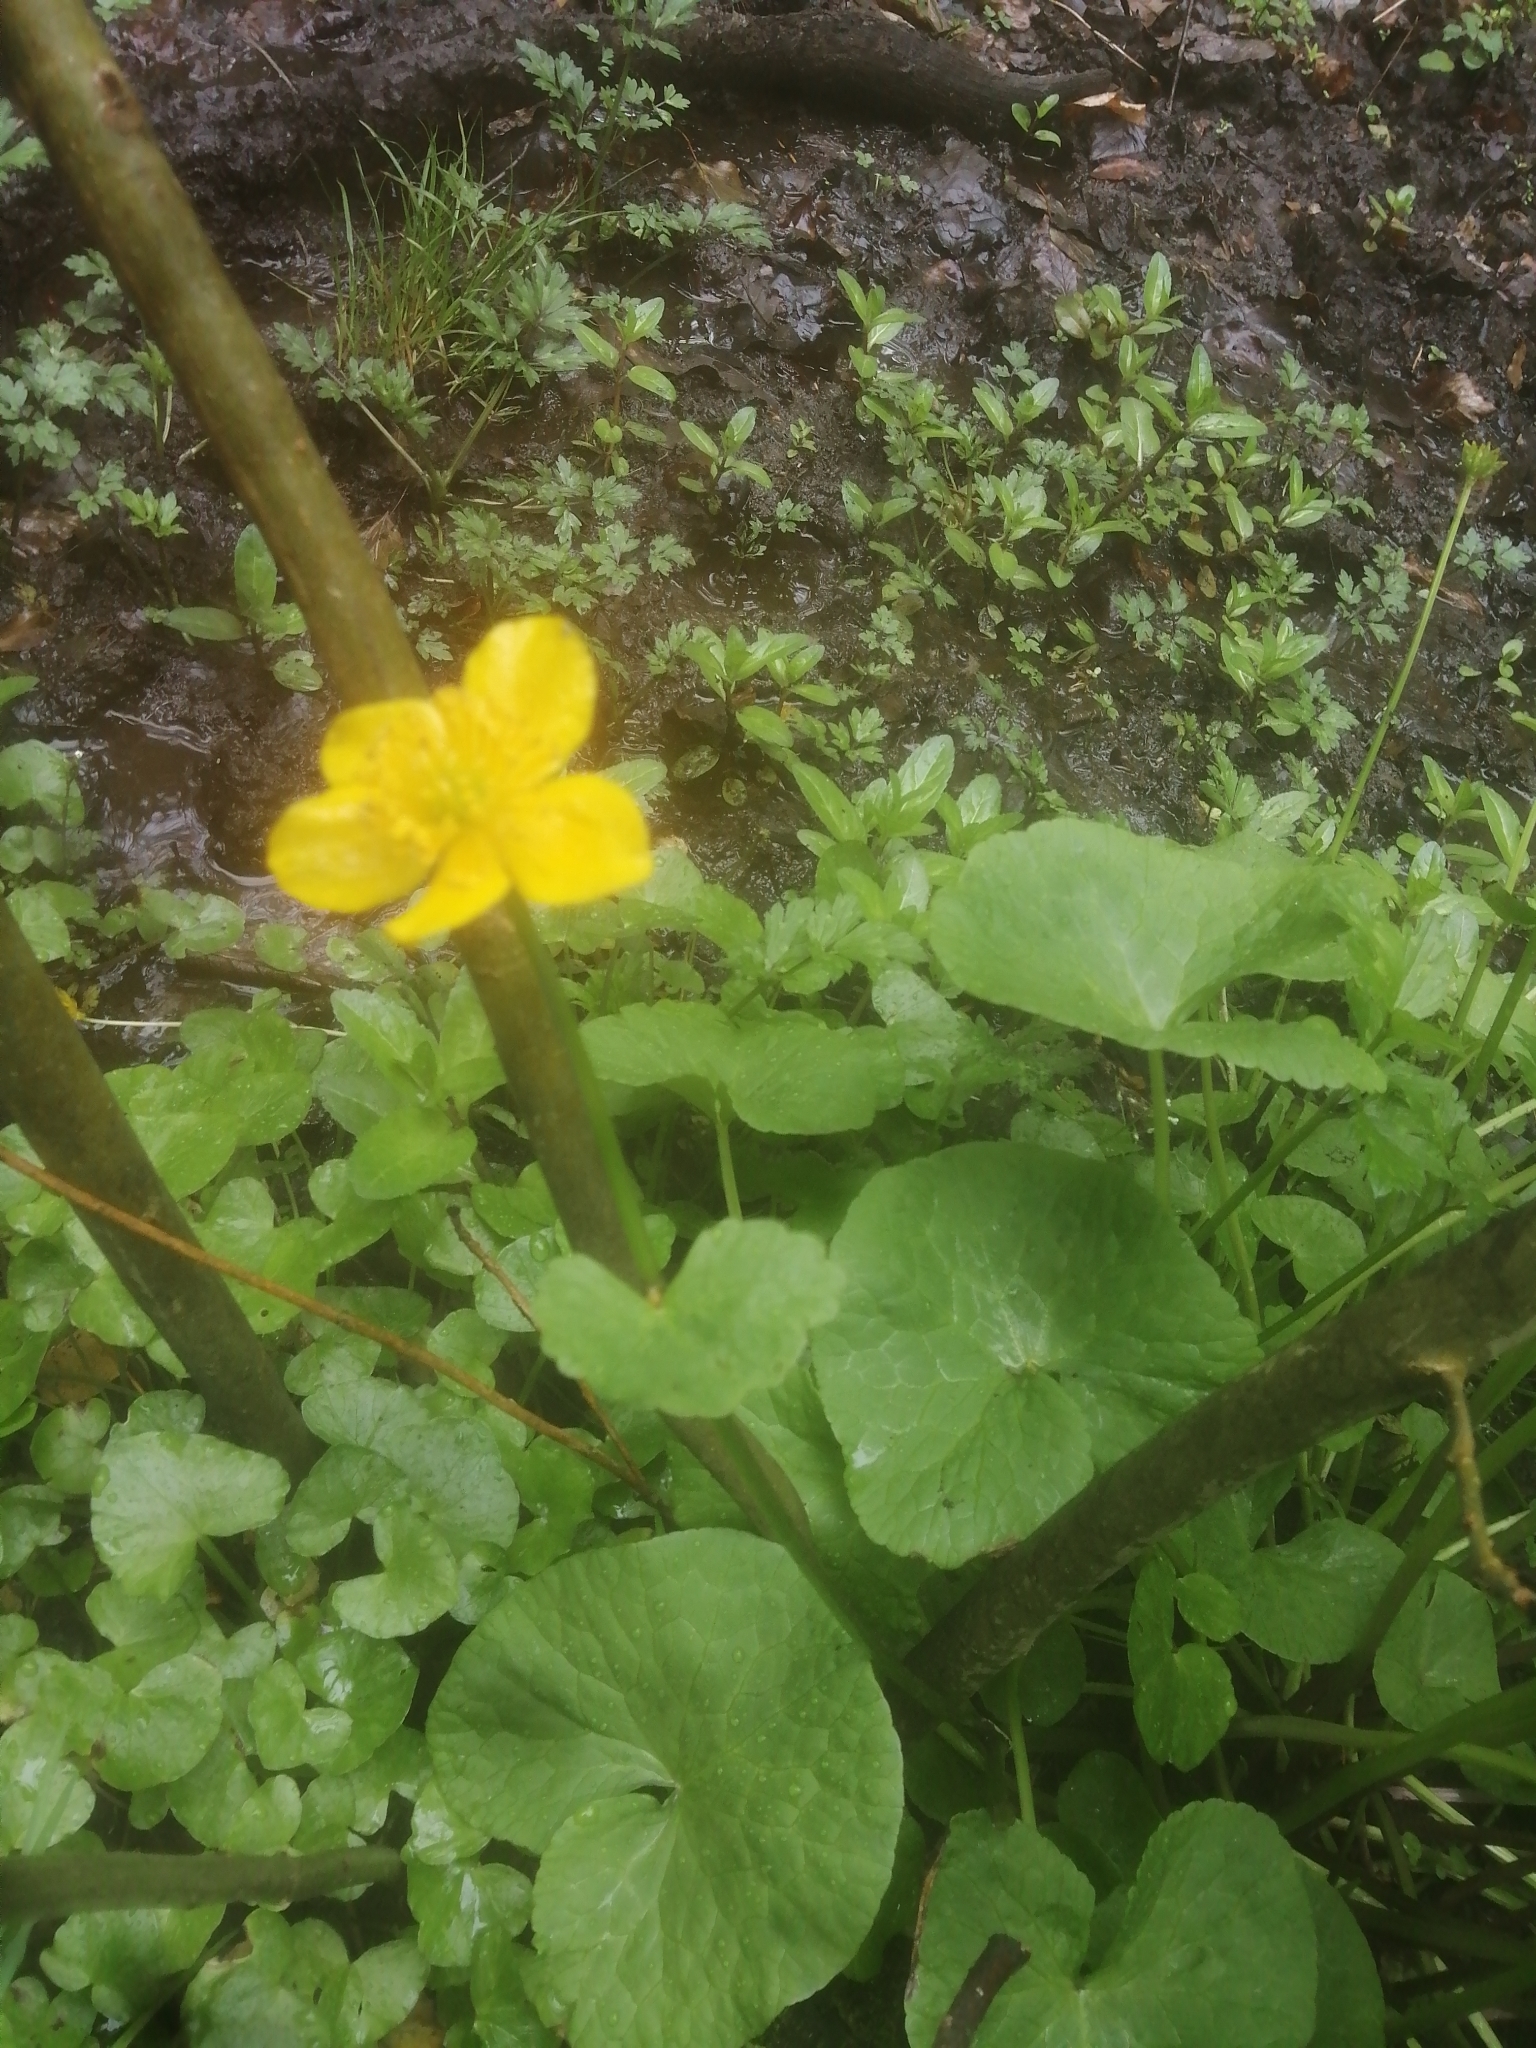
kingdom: Plantae
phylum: Tracheophyta
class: Magnoliopsida
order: Ranunculales
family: Ranunculaceae
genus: Caltha
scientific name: Caltha palustris
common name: Marsh marigold
